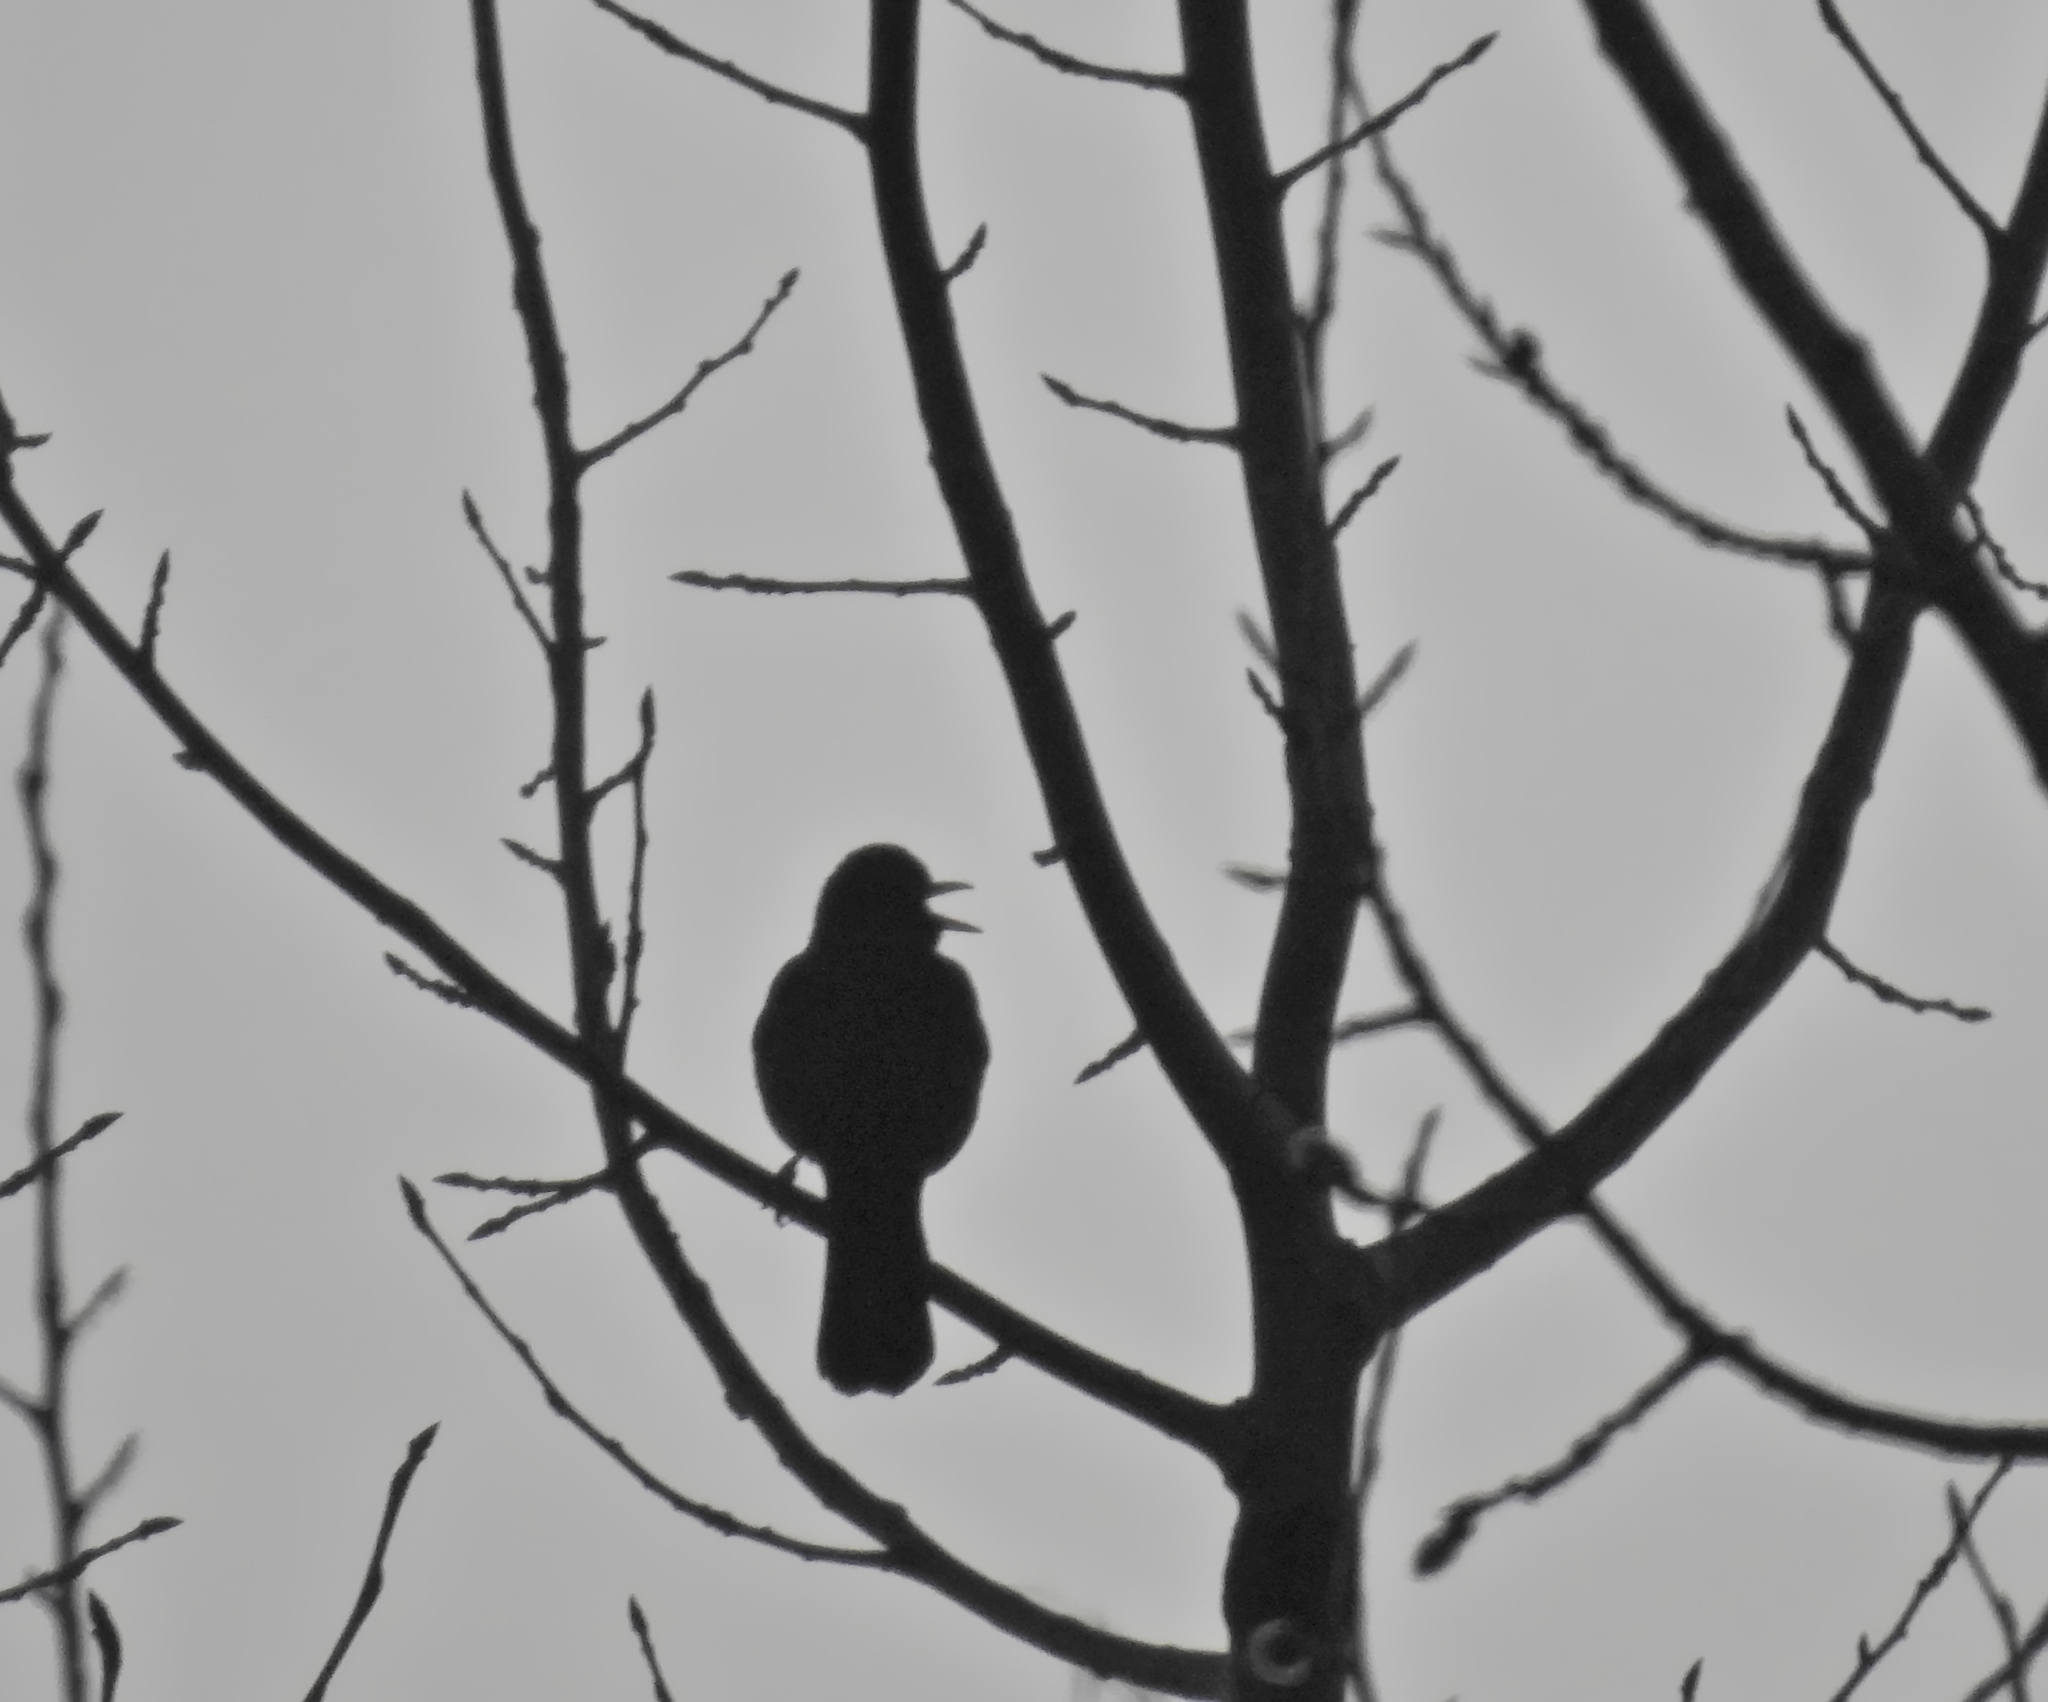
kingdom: Animalia
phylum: Chordata
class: Aves
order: Passeriformes
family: Turdidae
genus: Turdus
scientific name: Turdus merula
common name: Common blackbird
